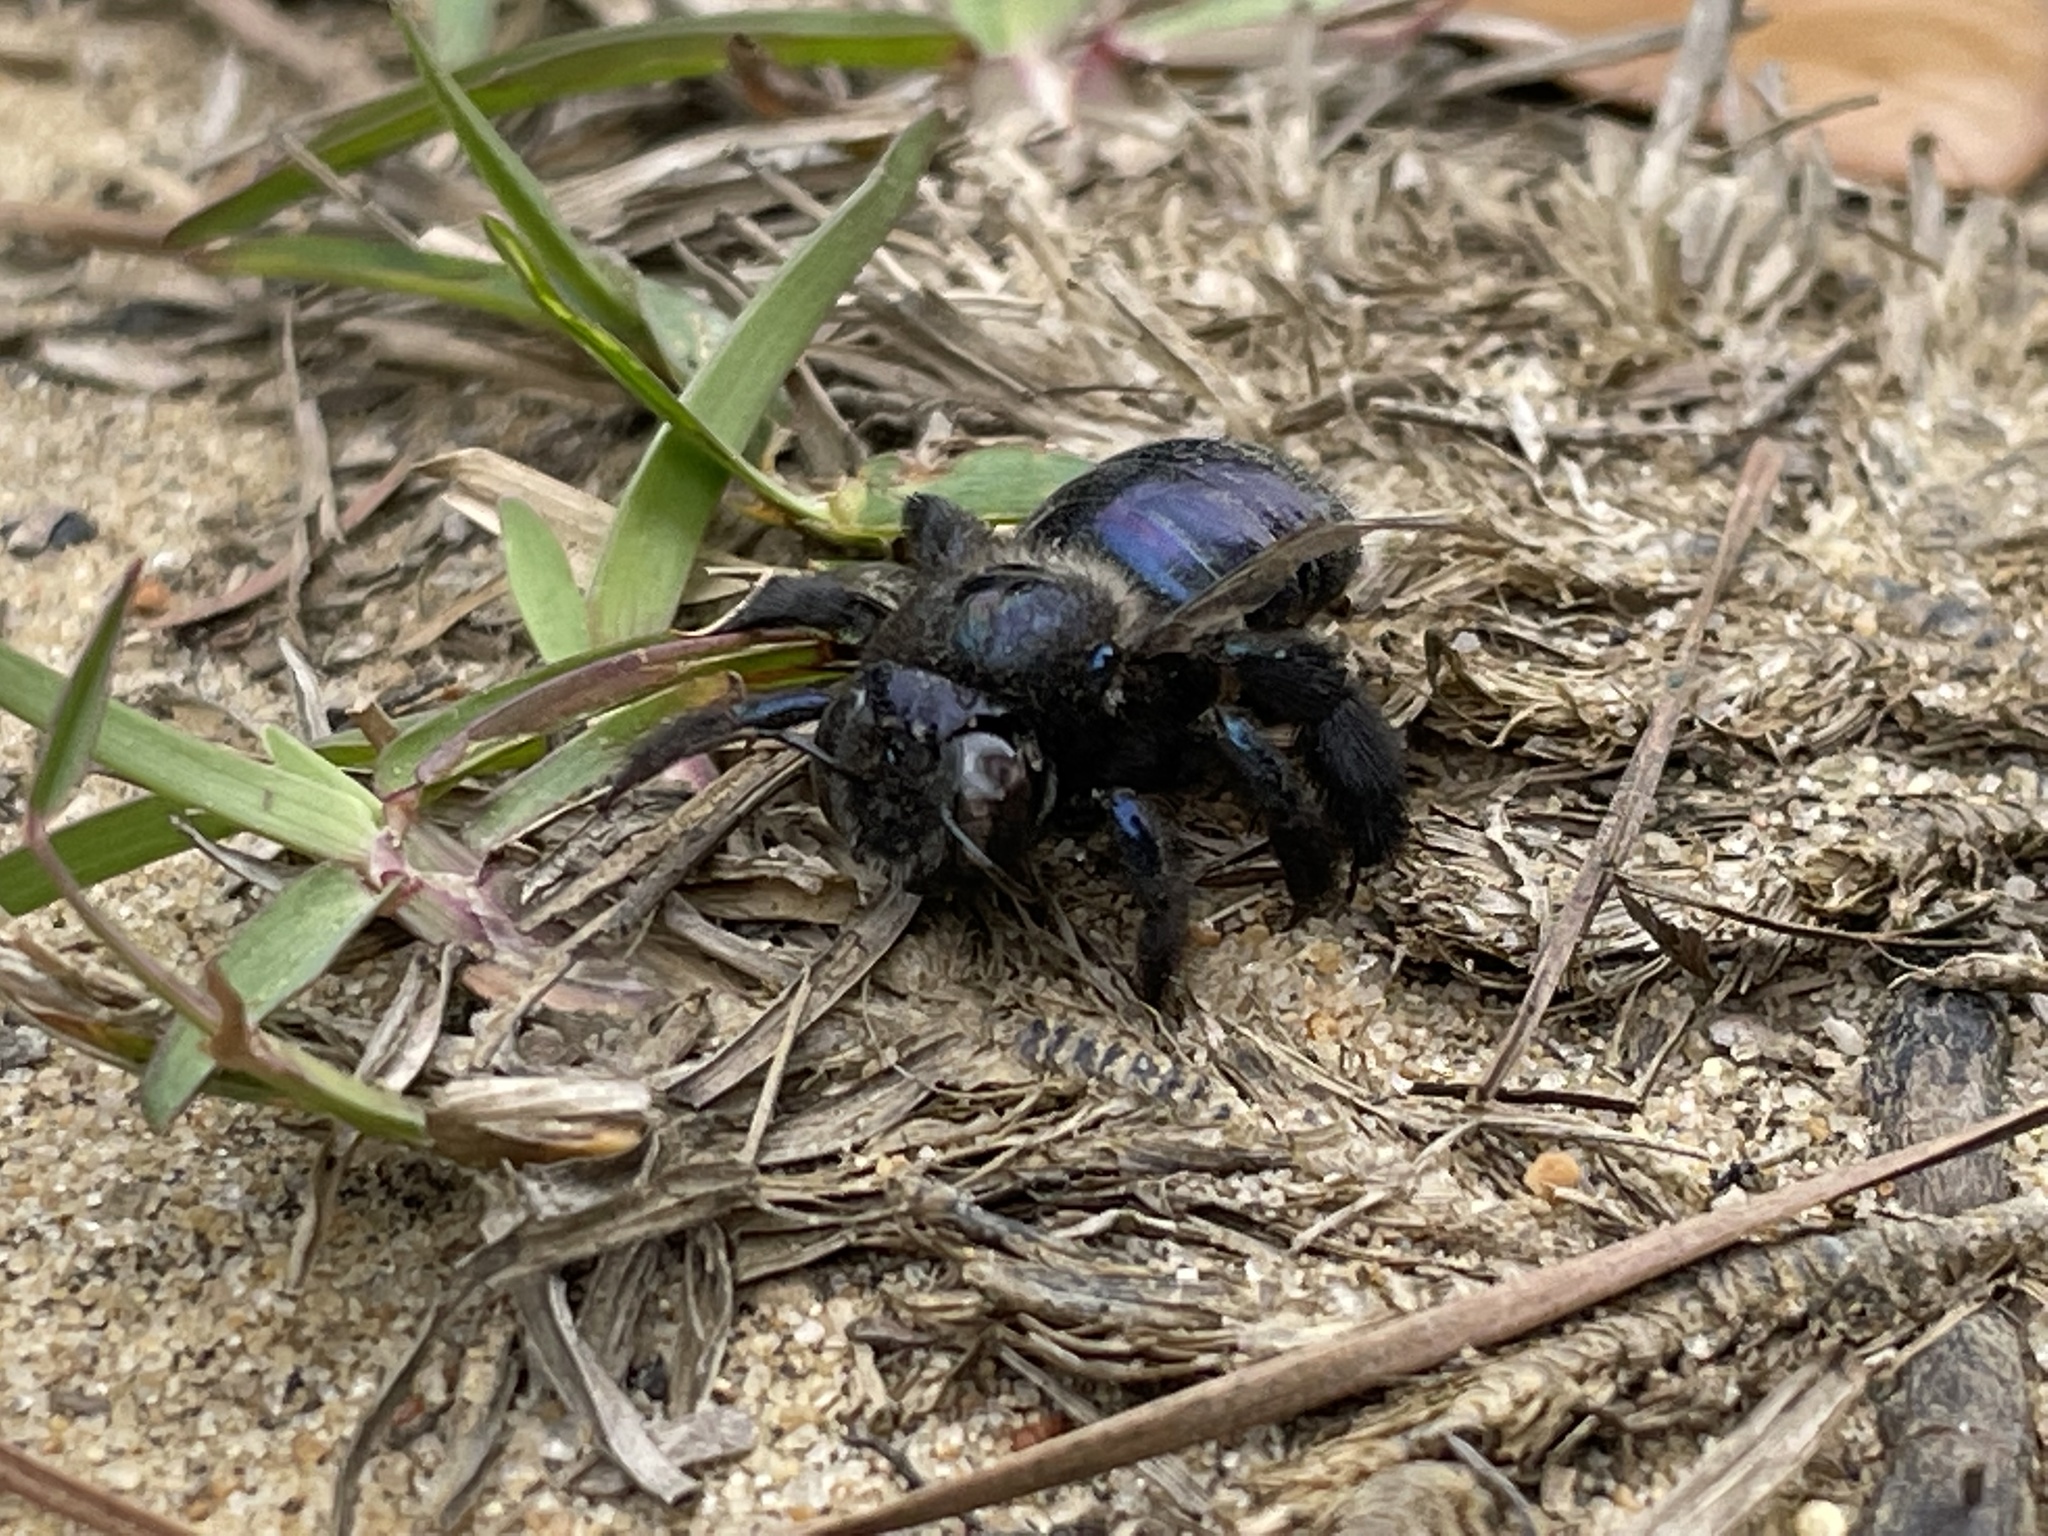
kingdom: Animalia
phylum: Arthropoda
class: Insecta
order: Hymenoptera
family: Apidae
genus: Xylocopa
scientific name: Xylocopa micans
